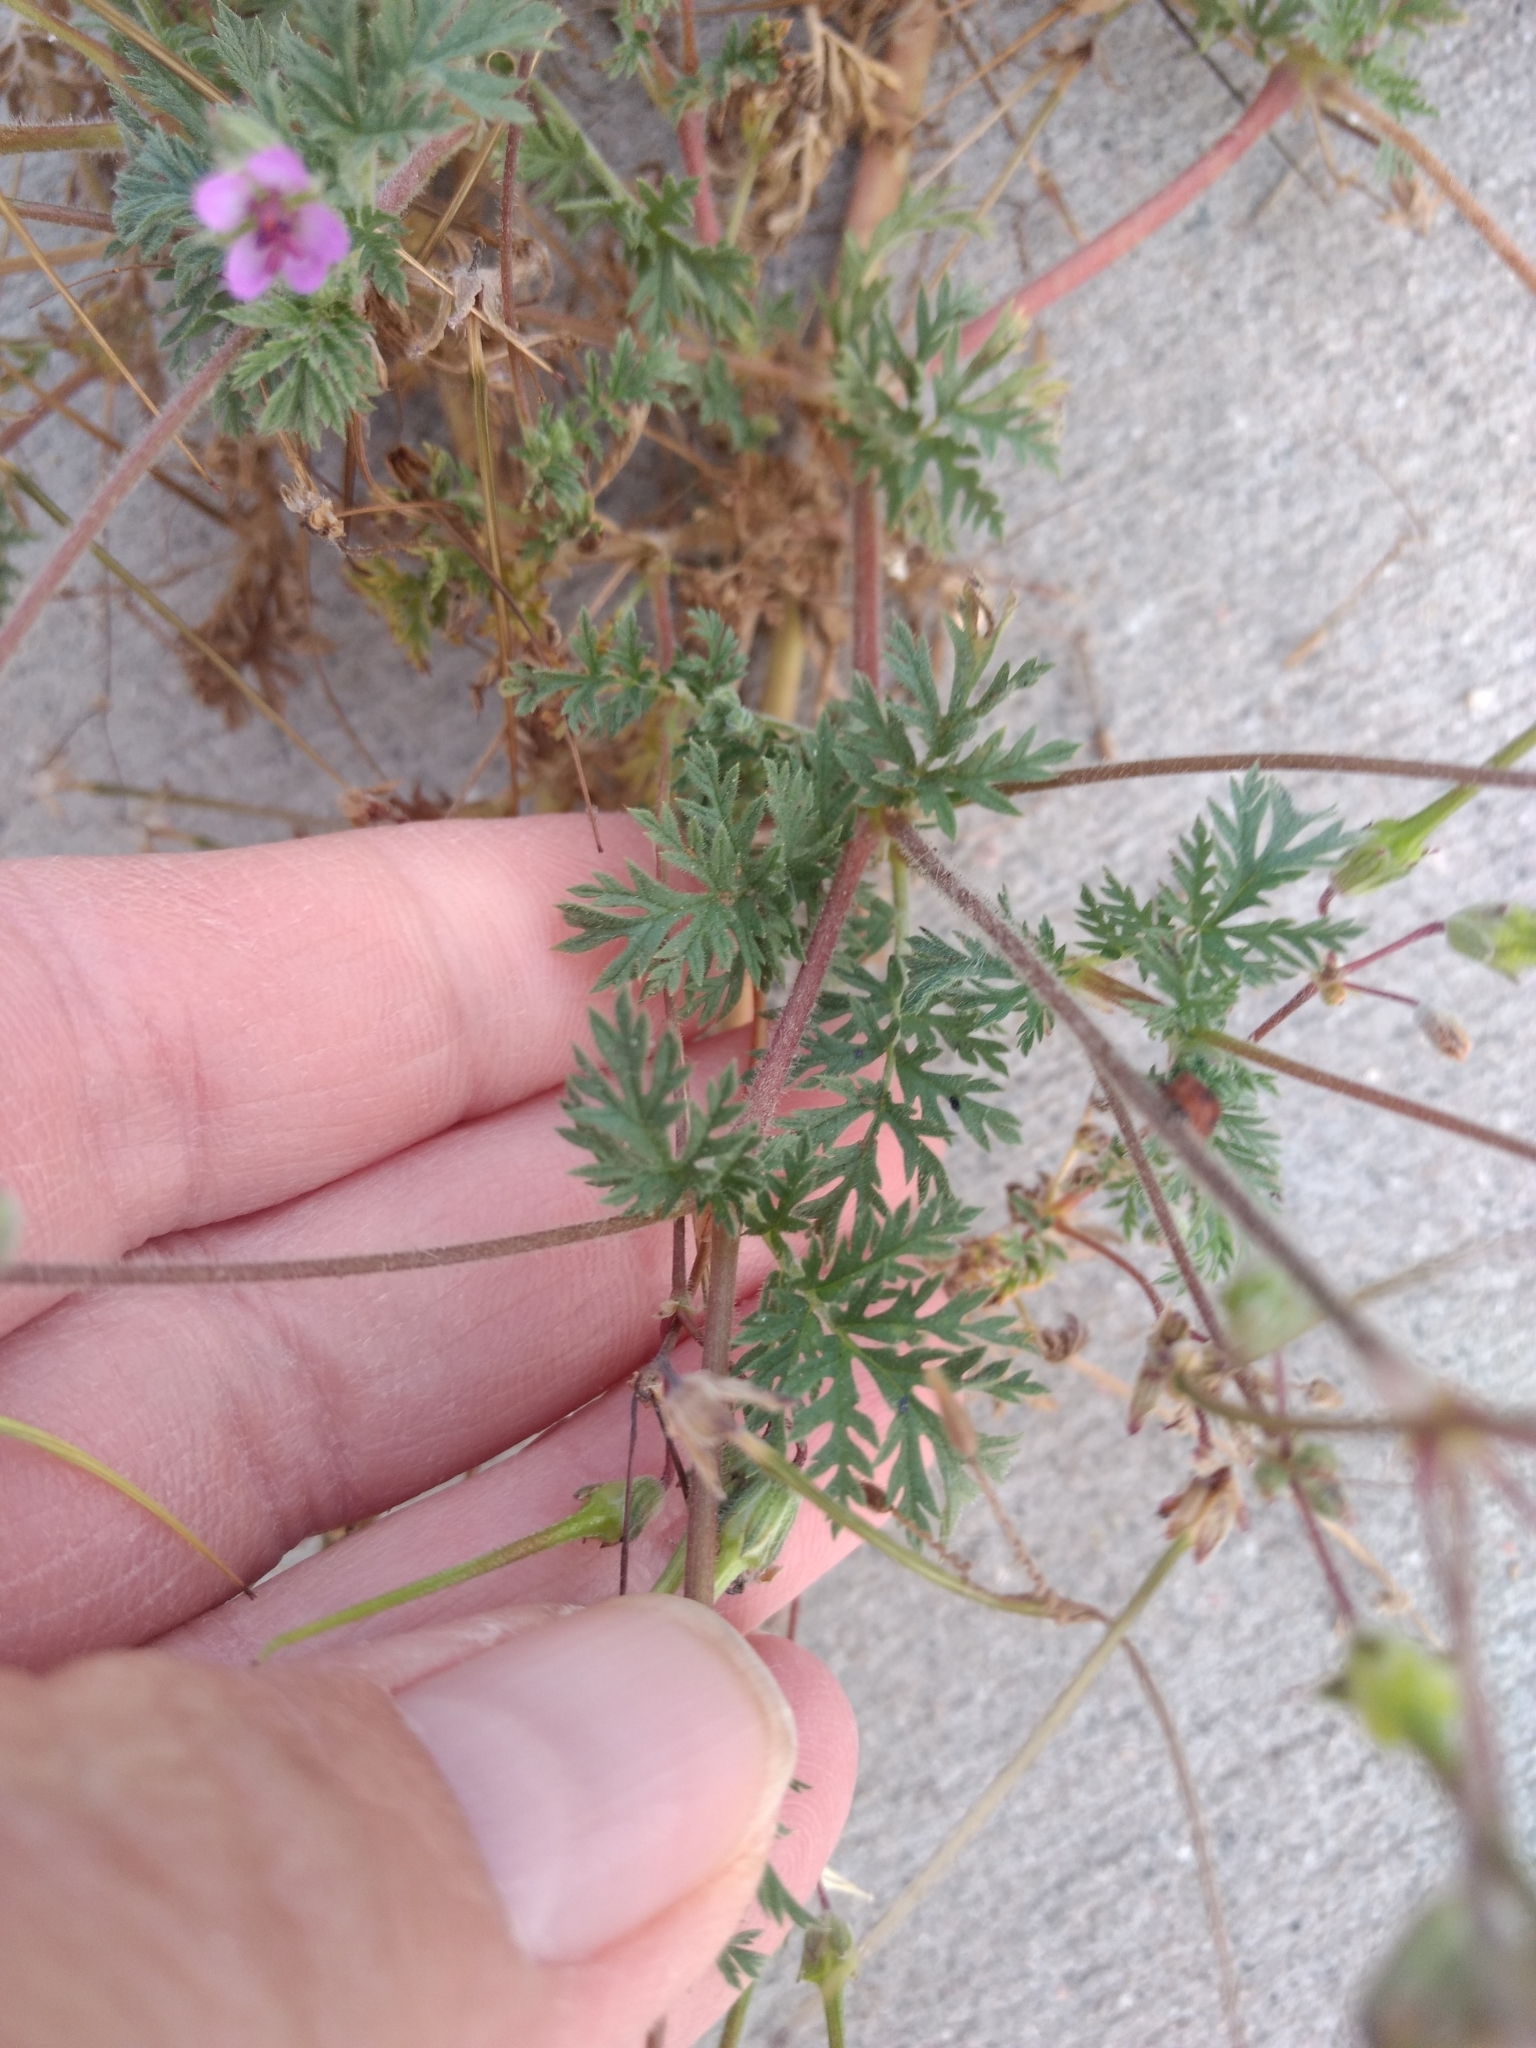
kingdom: Plantae
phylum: Tracheophyta
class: Magnoliopsida
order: Geraniales
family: Geraniaceae
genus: Erodium
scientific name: Erodium cicutarium
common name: Common stork's-bill
